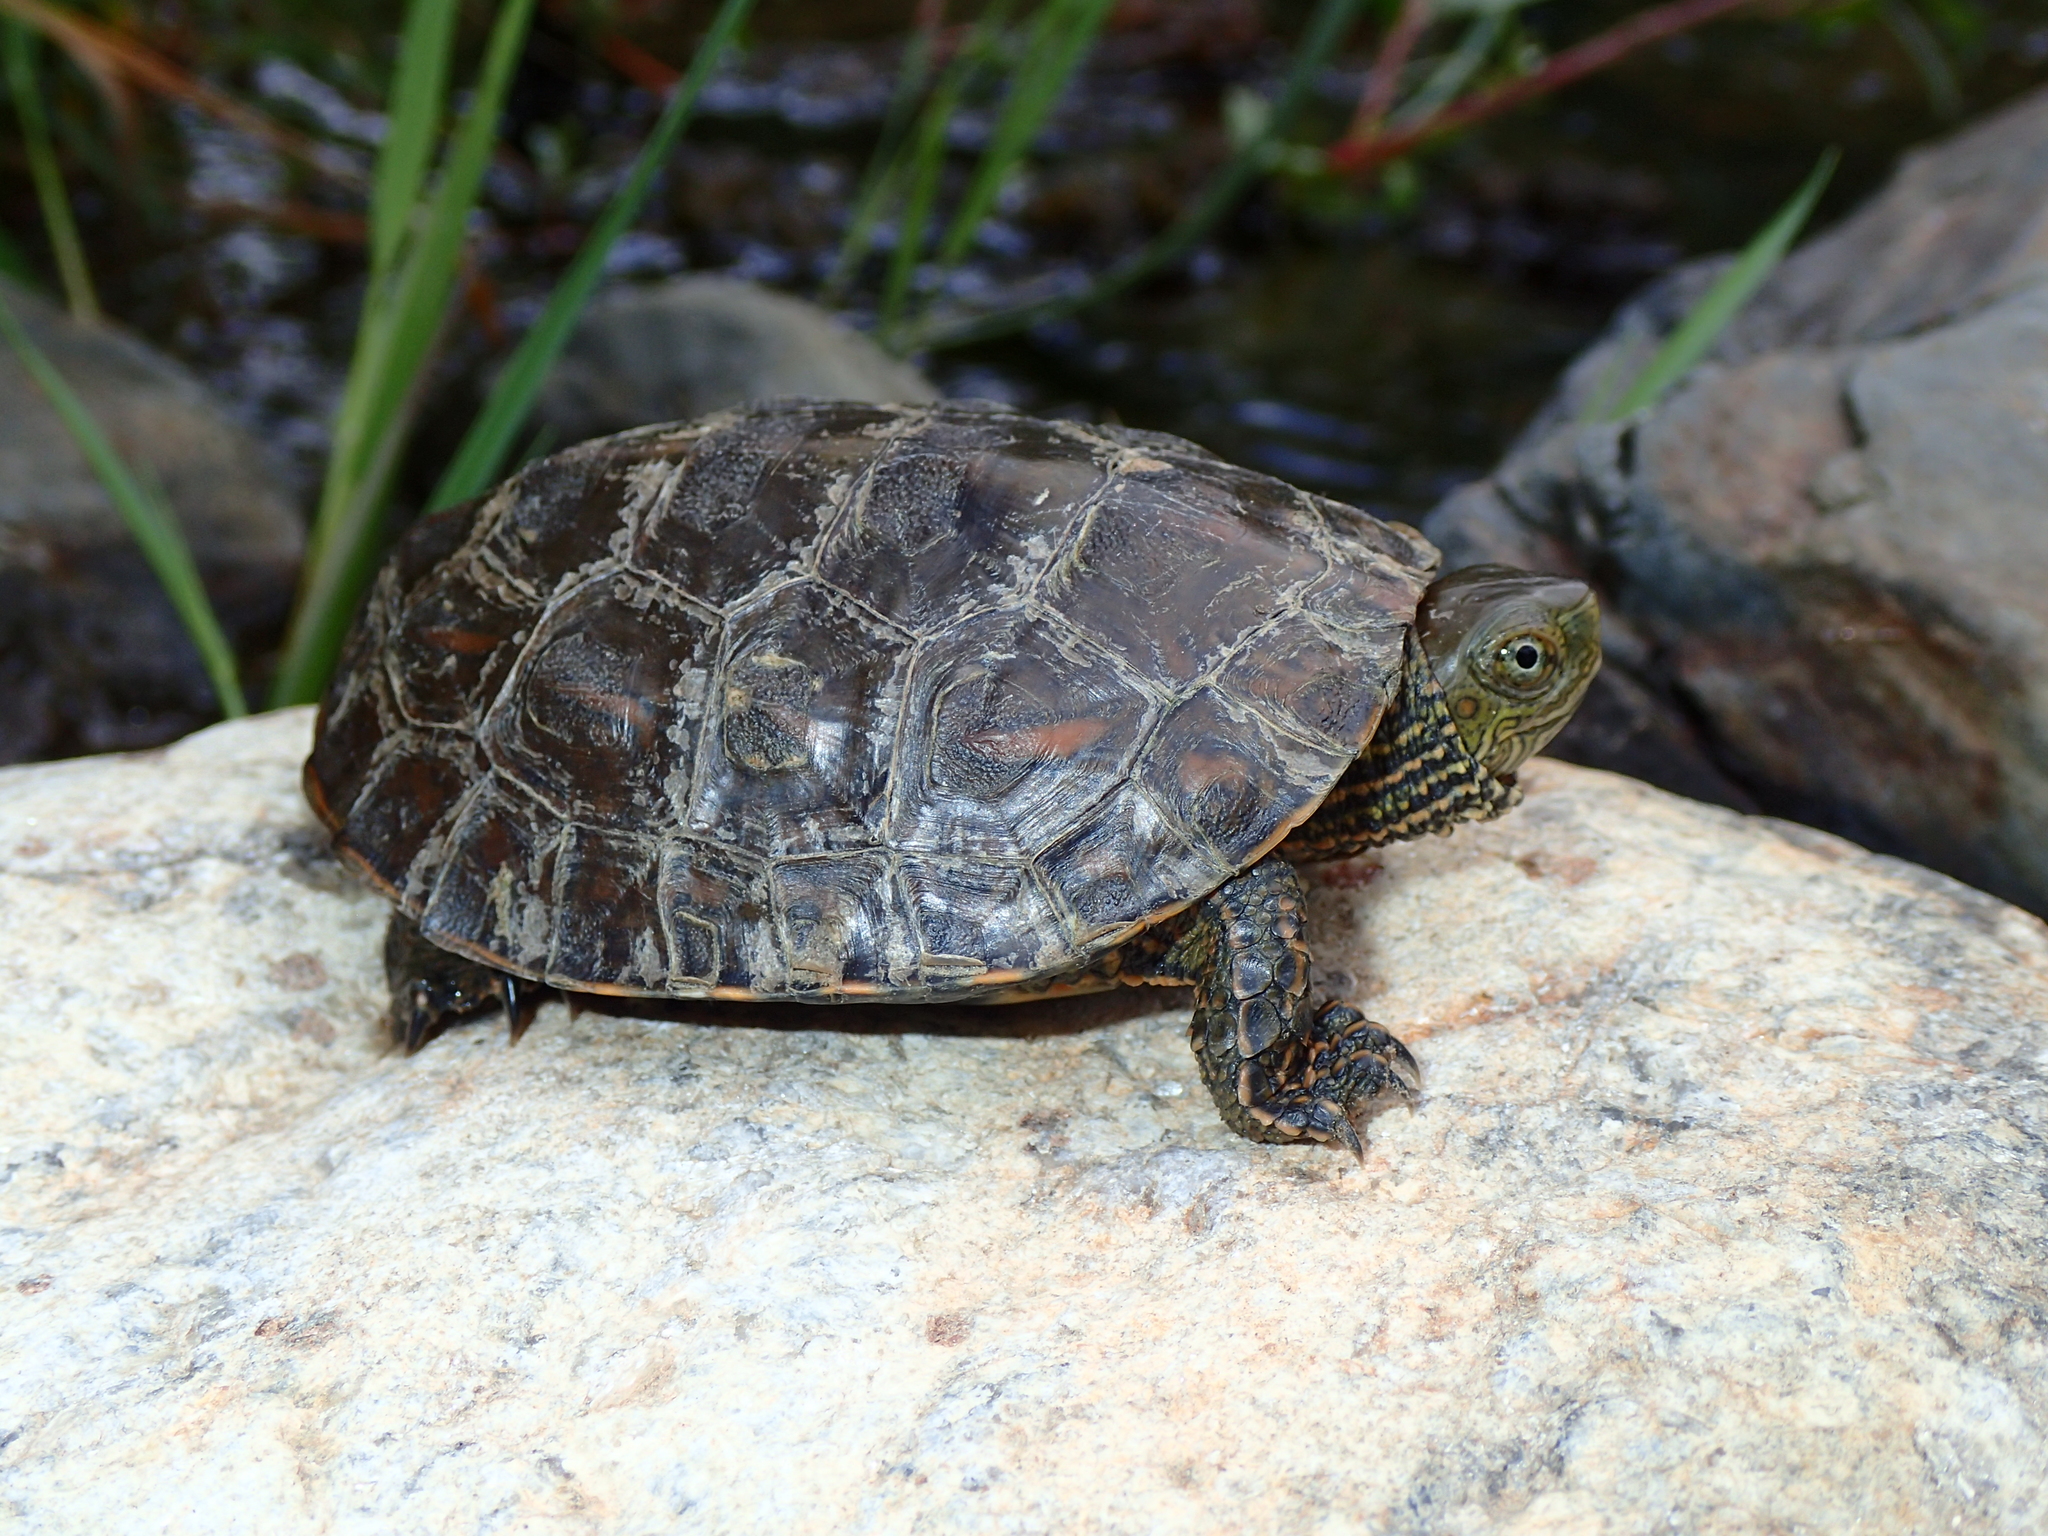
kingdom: Animalia
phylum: Chordata
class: Testudines
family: Geoemydidae
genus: Mauremys
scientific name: Mauremys leprosa
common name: Mediterranean pond turtle
